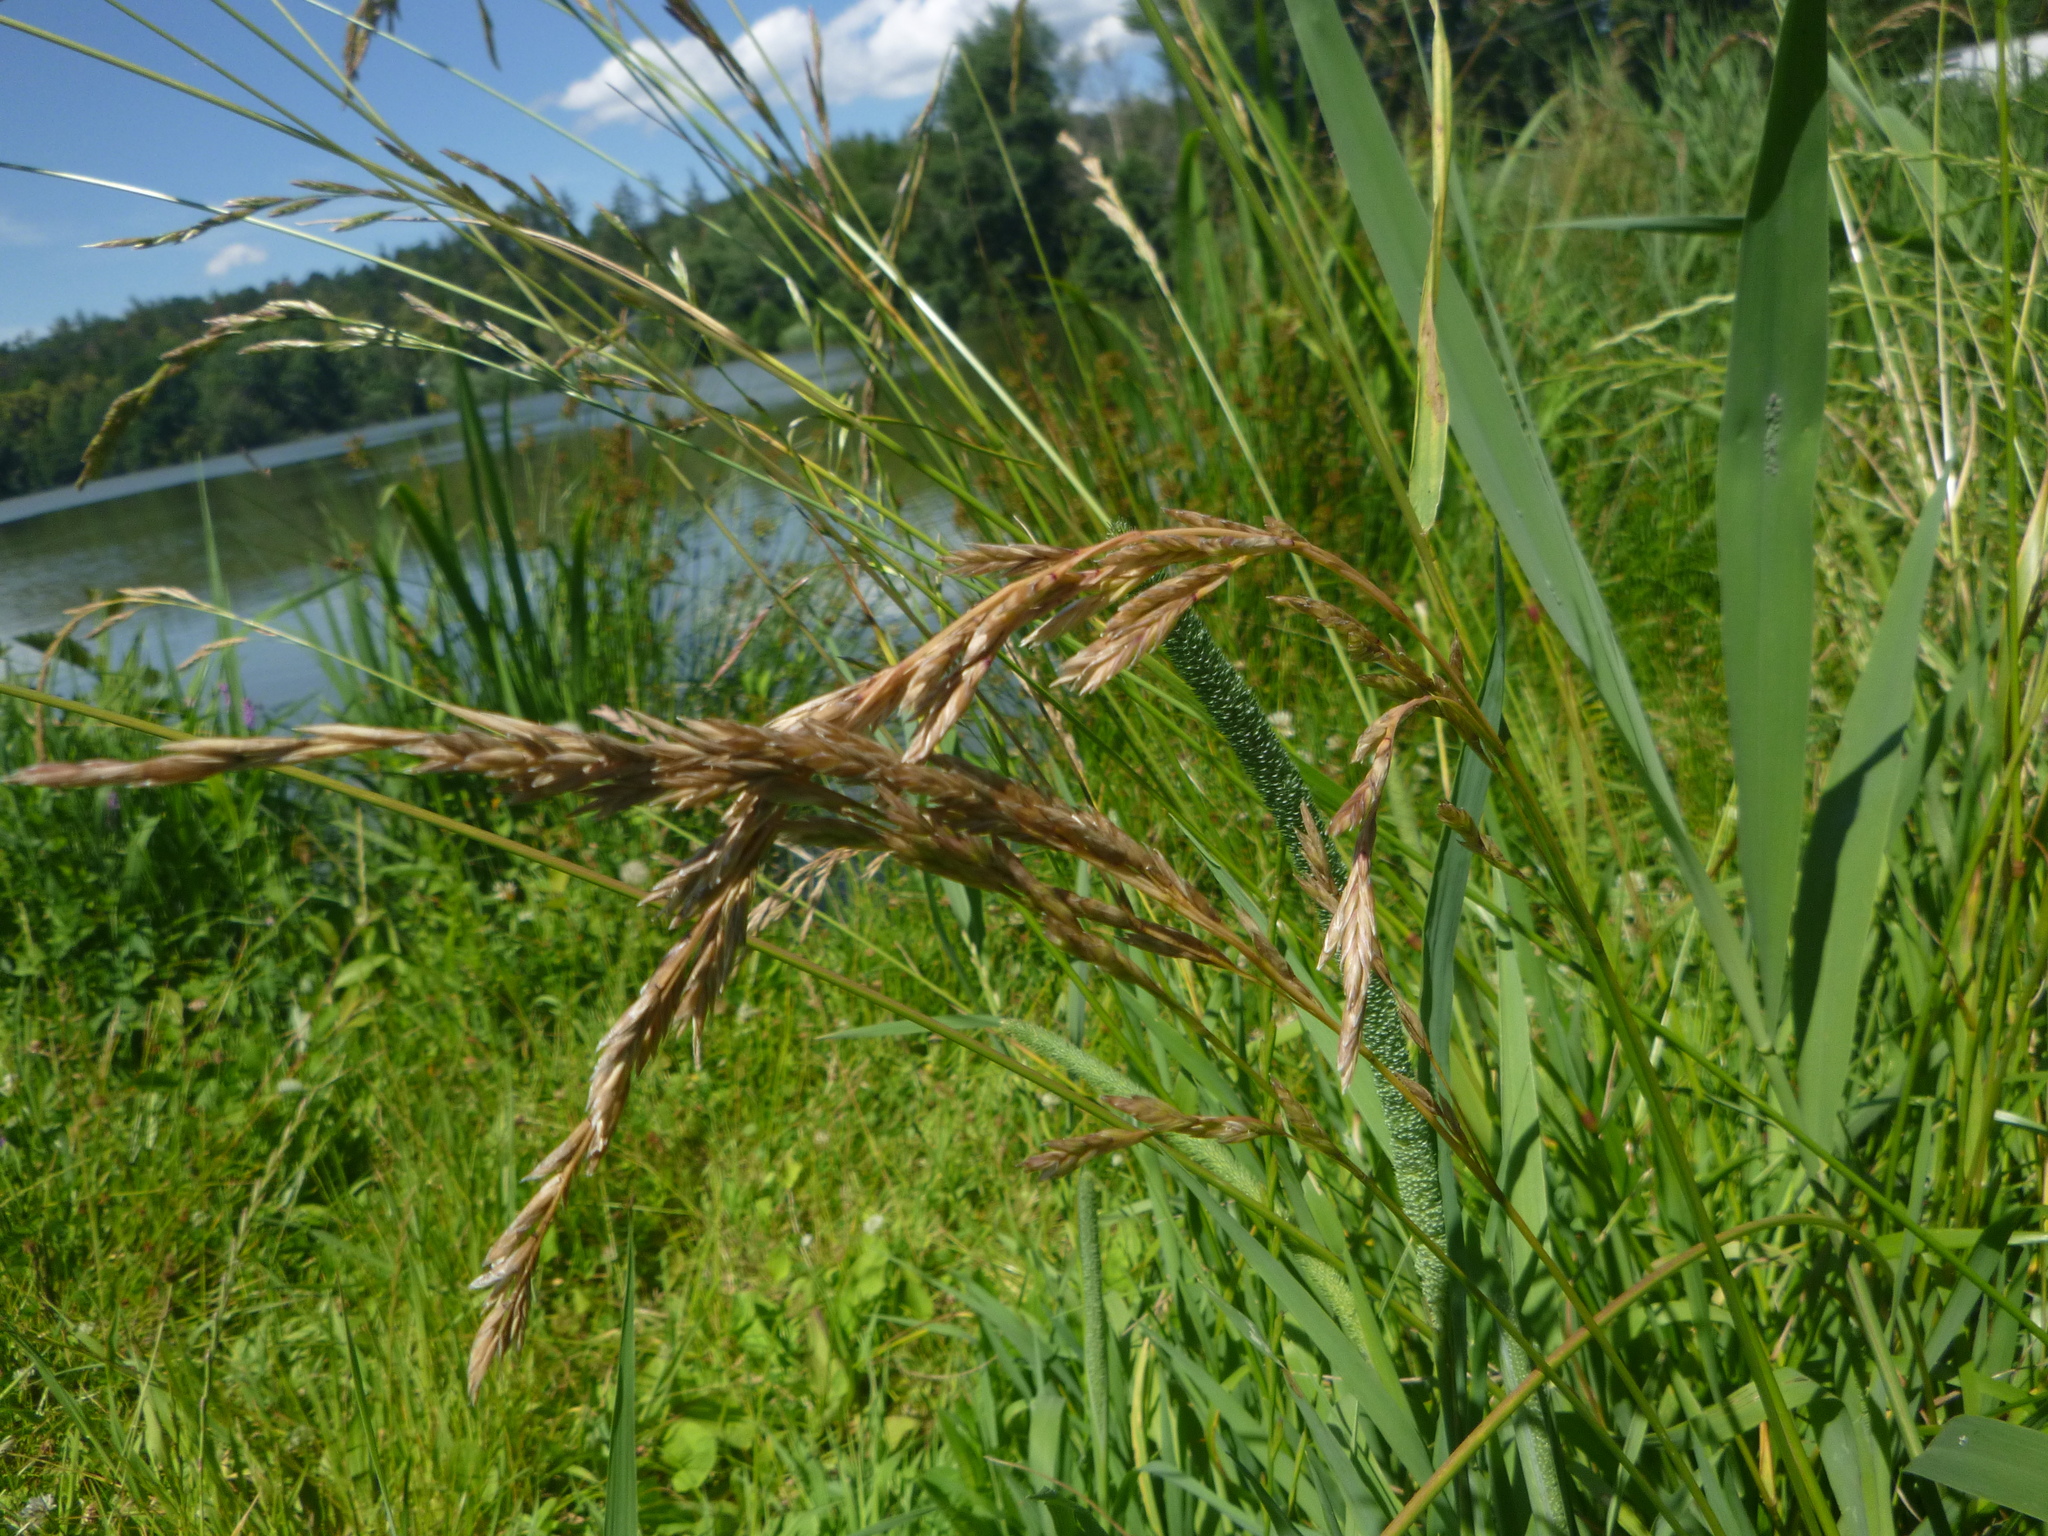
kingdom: Plantae
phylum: Tracheophyta
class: Liliopsida
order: Poales
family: Poaceae
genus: Lolium
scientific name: Lolium arundinaceum
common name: Reed fescue
